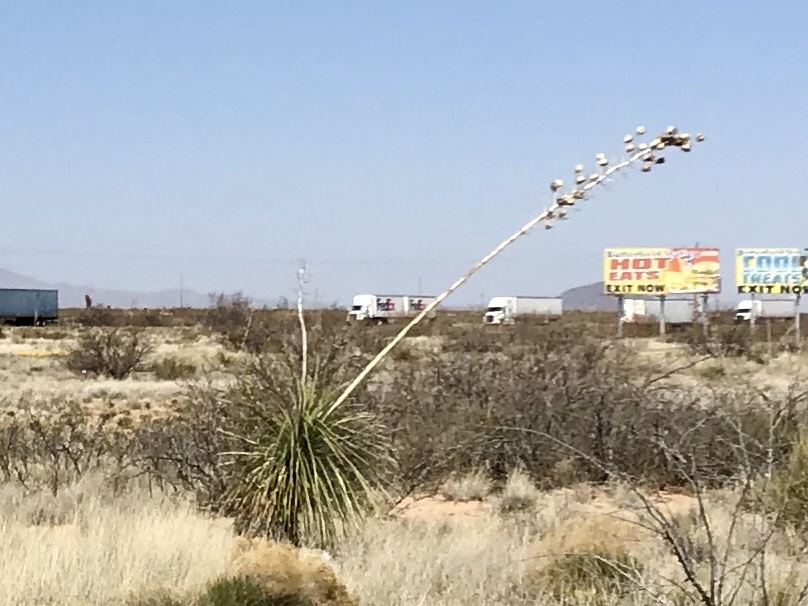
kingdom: Plantae
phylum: Tracheophyta
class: Liliopsida
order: Asparagales
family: Asparagaceae
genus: Yucca
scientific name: Yucca elata
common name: Palmella
